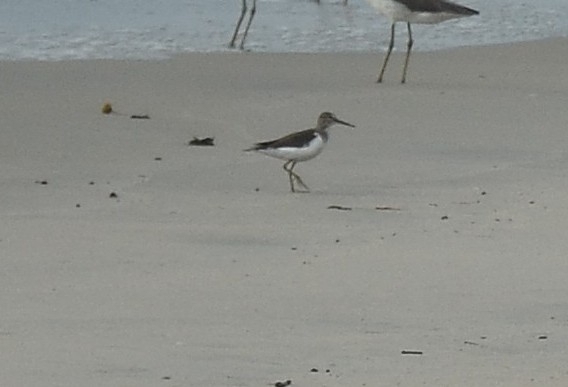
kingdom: Animalia
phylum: Chordata
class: Aves
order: Charadriiformes
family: Scolopacidae
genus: Actitis
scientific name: Actitis hypoleucos
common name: Common sandpiper
